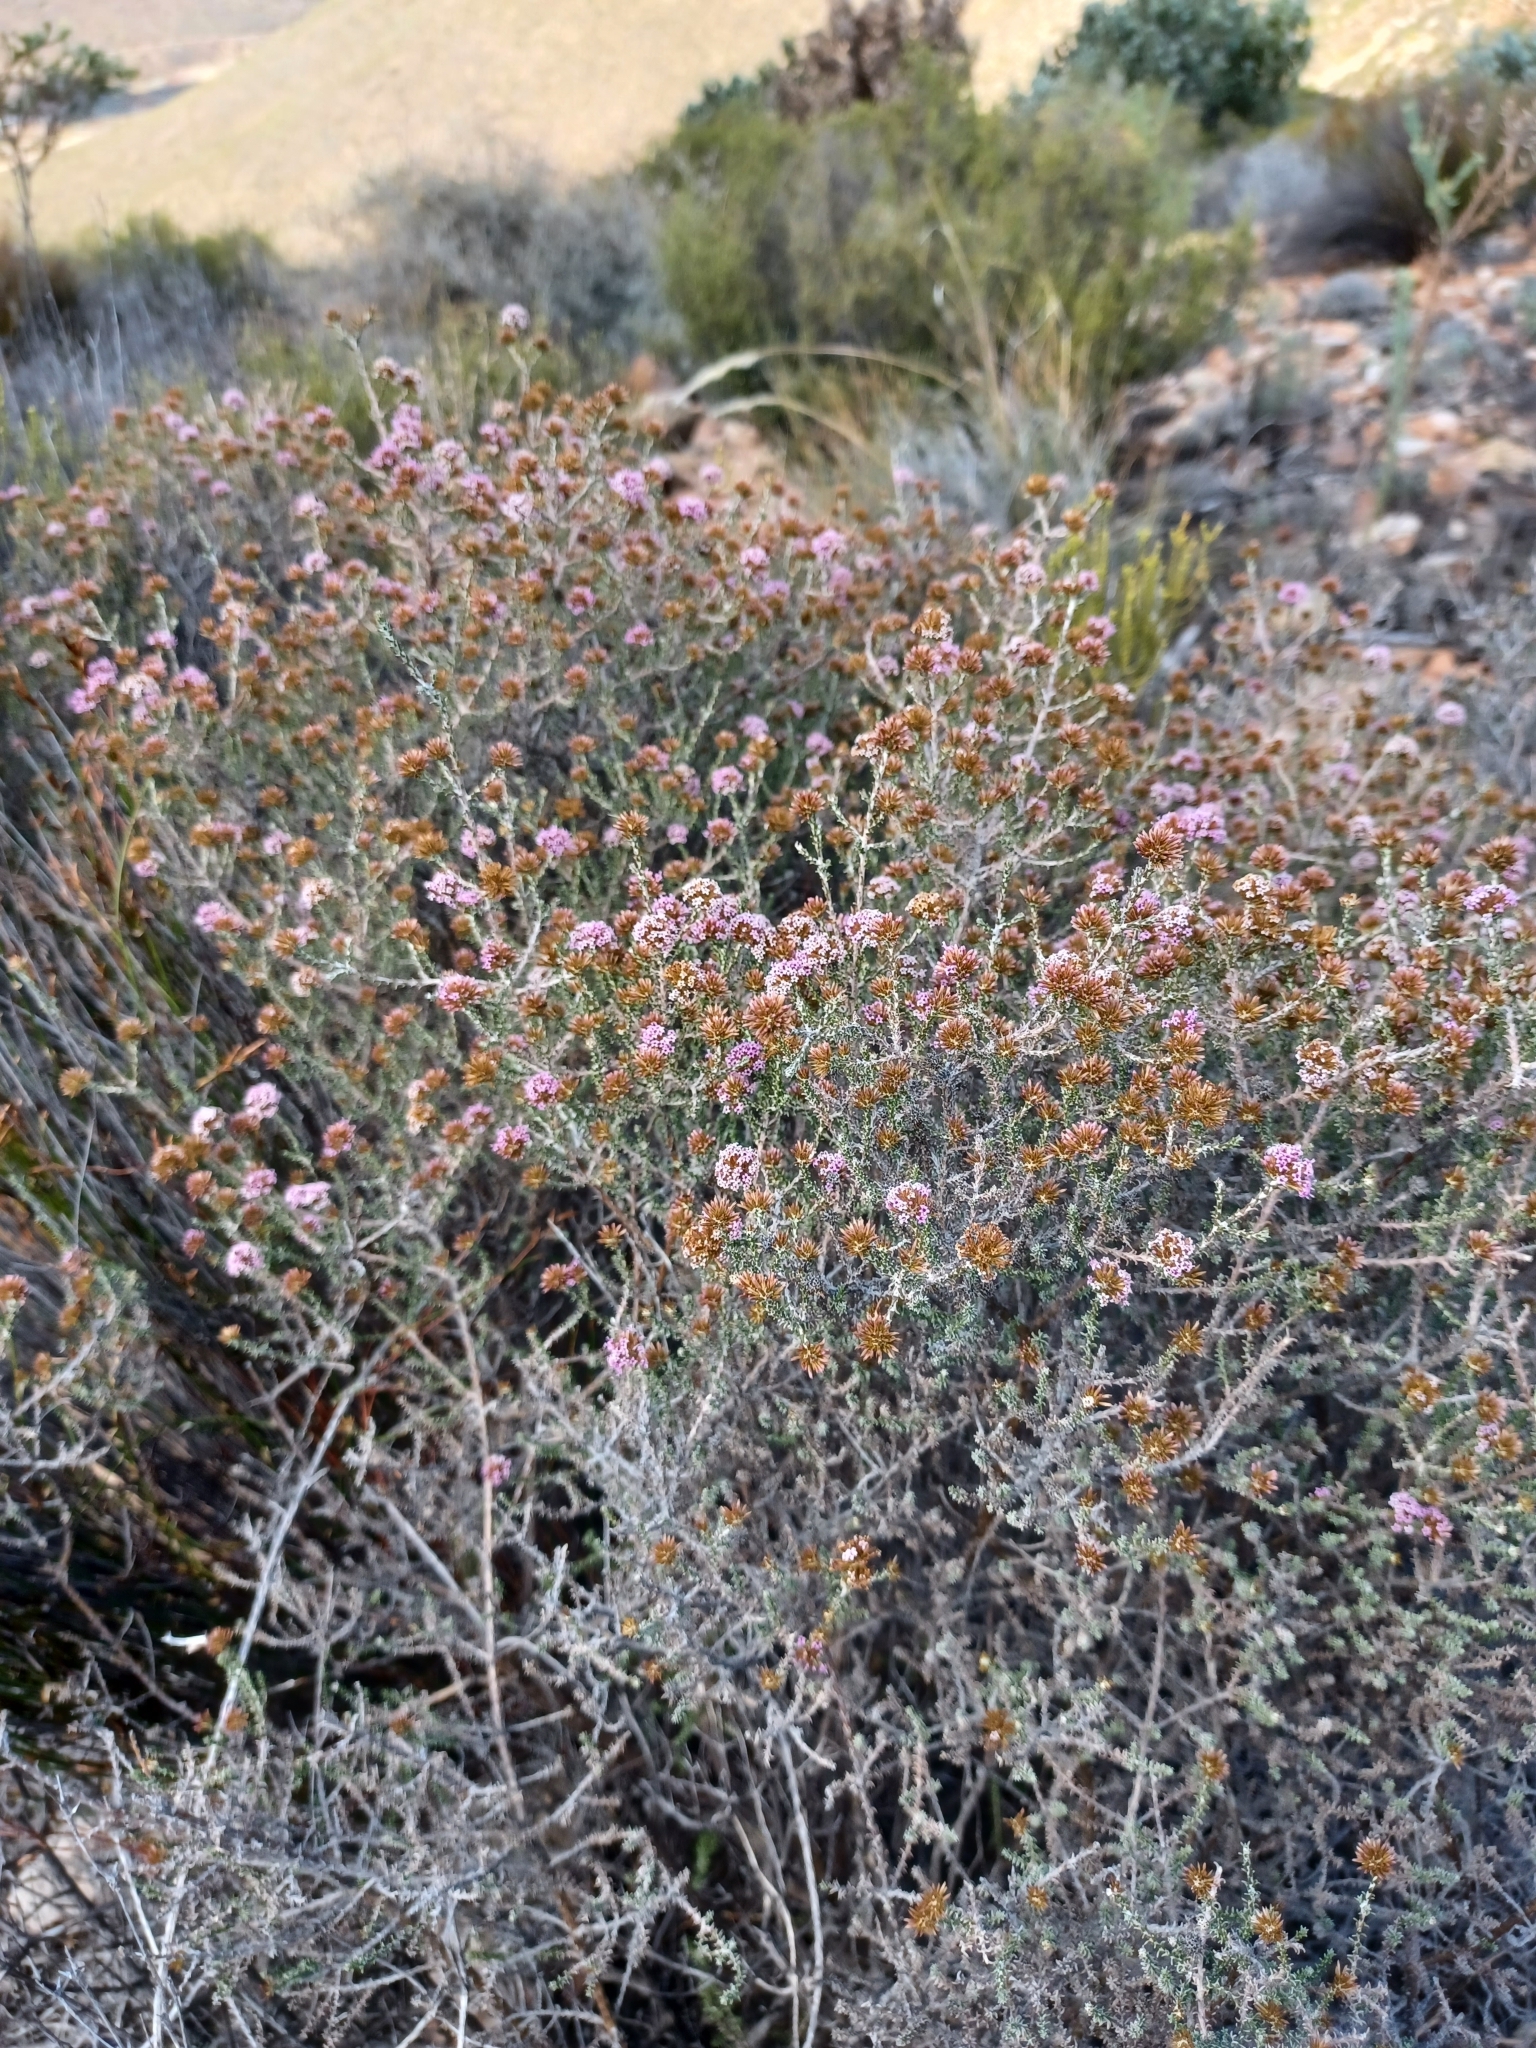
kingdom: Plantae
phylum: Tracheophyta
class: Magnoliopsida
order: Asterales
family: Asteraceae
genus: Stoebe
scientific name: Stoebe capitata
